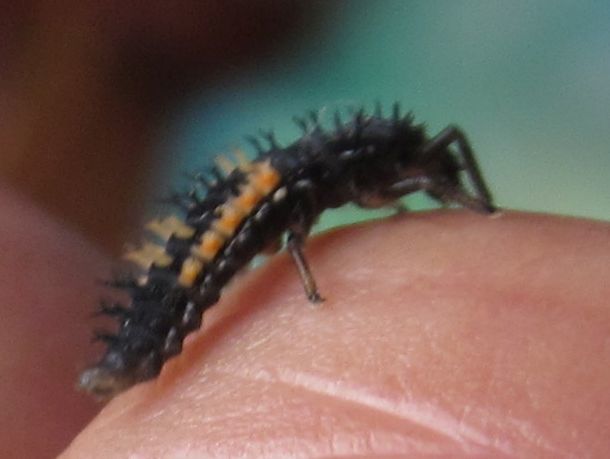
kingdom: Animalia
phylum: Arthropoda
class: Insecta
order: Coleoptera
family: Coccinellidae
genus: Harmonia
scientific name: Harmonia axyridis
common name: Harlequin ladybird
